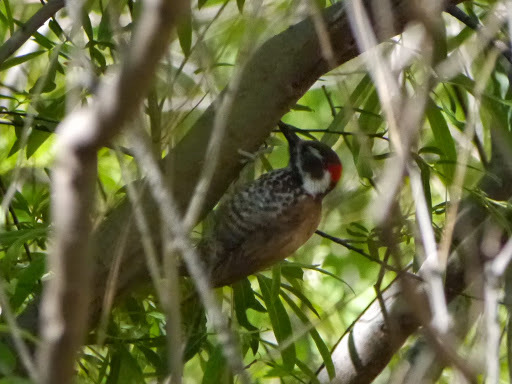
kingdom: Animalia
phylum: Chordata
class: Aves
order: Piciformes
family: Picidae
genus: Leuconotopicus
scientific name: Leuconotopicus arizonae
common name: Arizona woodpecker
